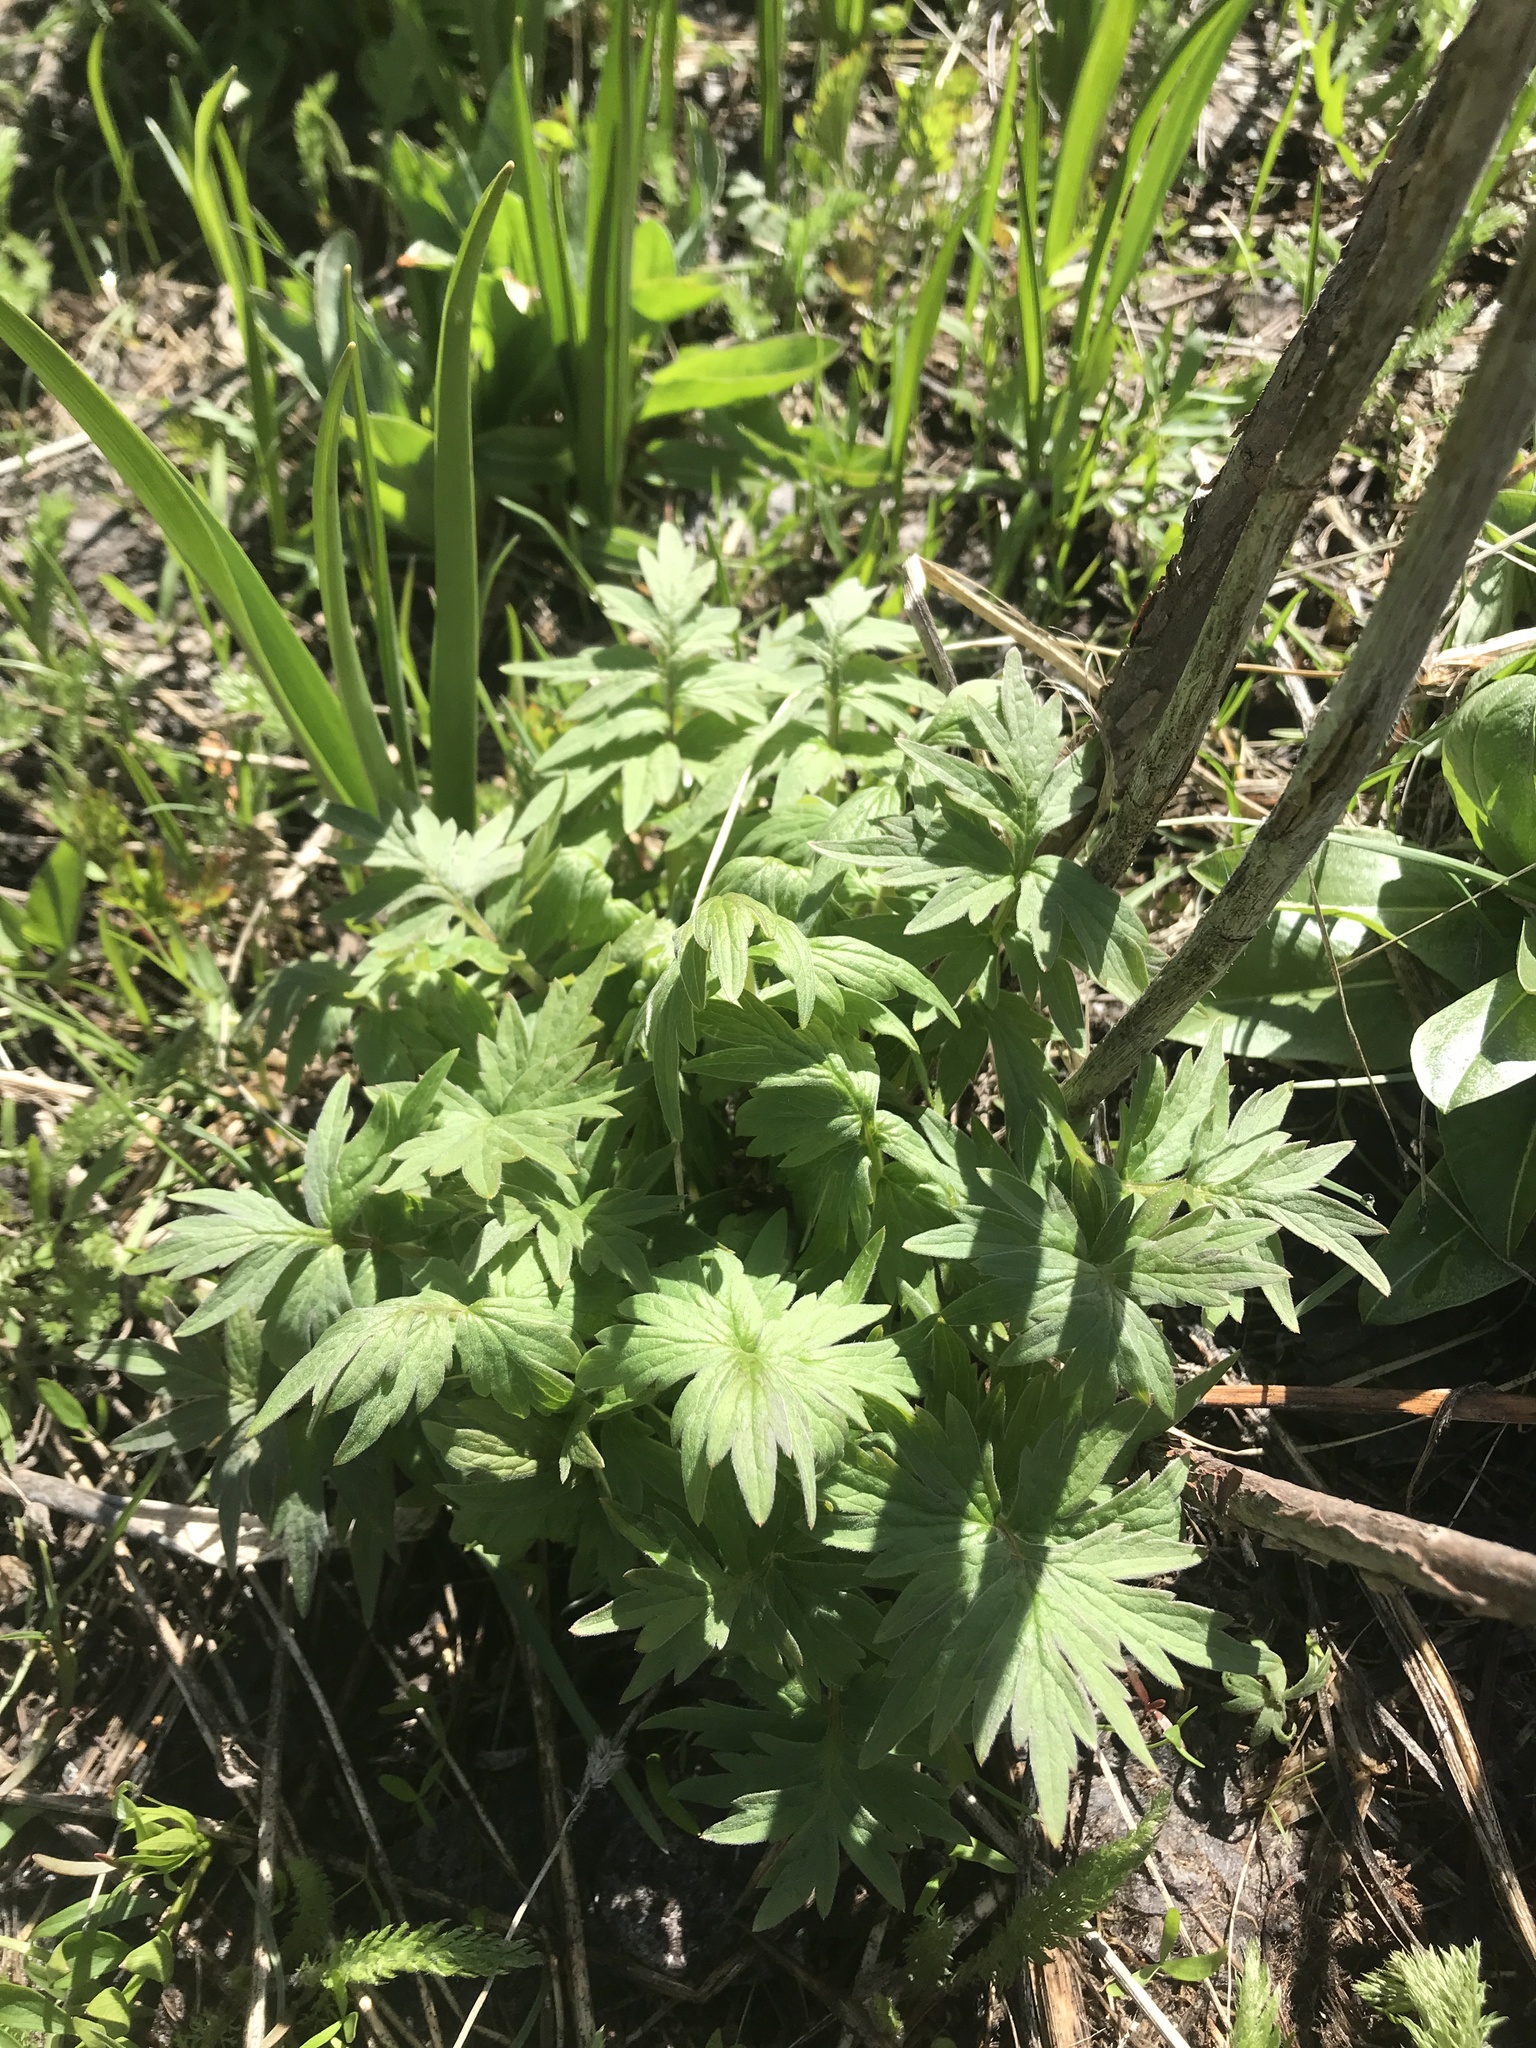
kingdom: Plantae
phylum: Tracheophyta
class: Magnoliopsida
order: Boraginales
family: Hydrophyllaceae
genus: Hydrophyllum
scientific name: Hydrophyllum fendleri
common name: Fendler's waterleaf
